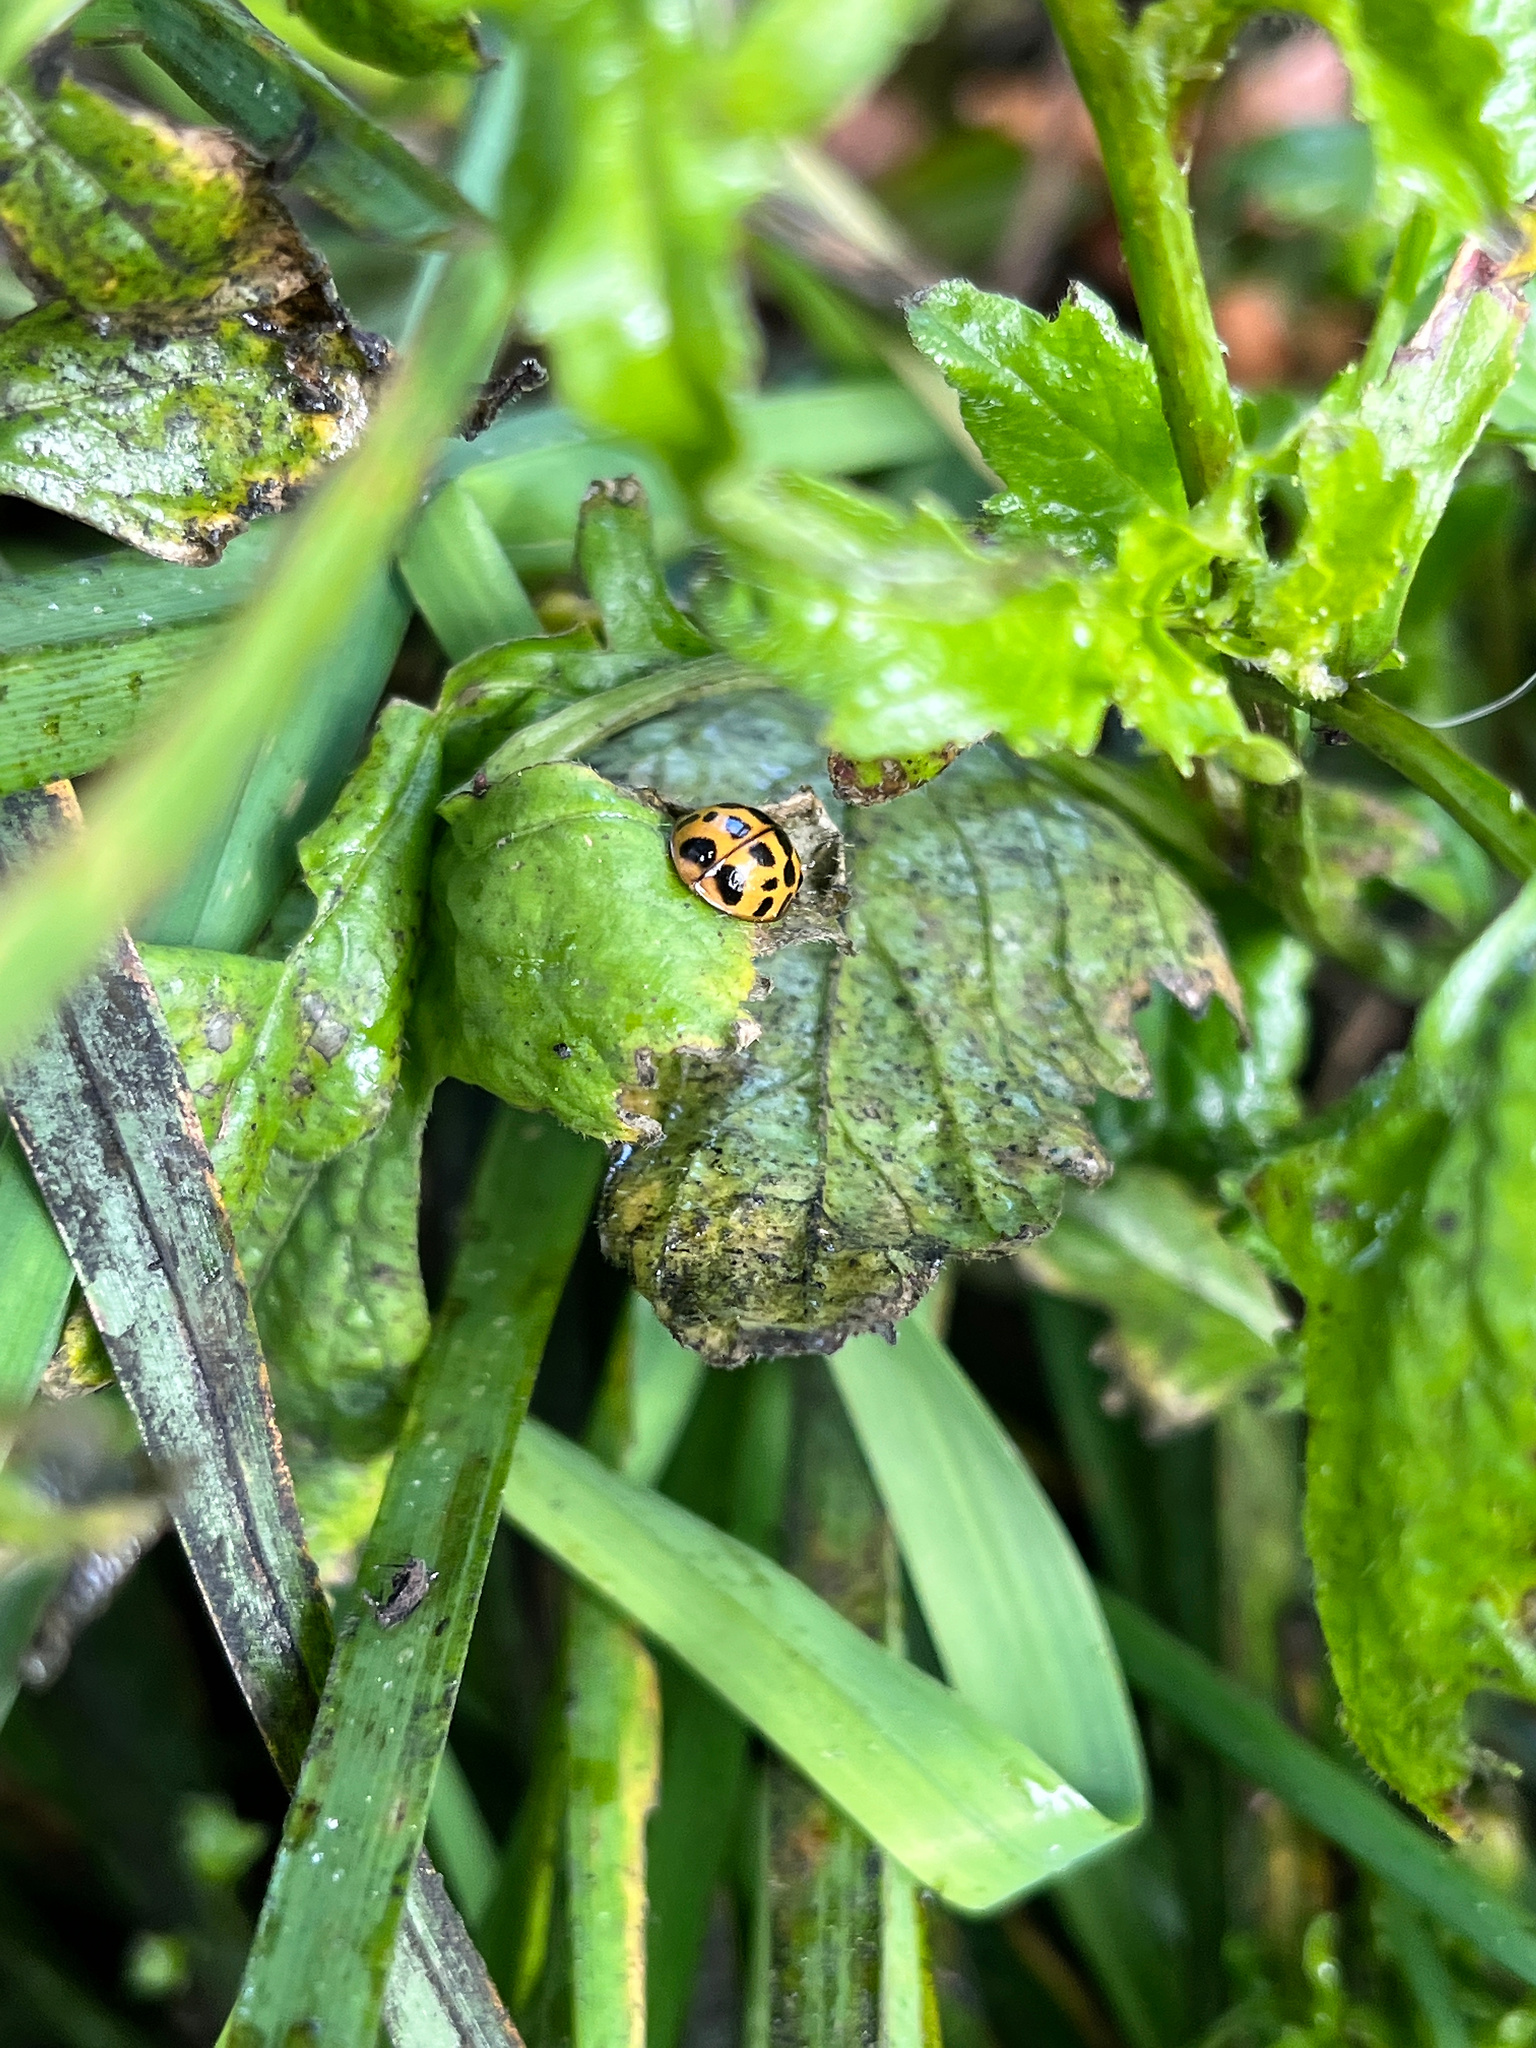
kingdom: Animalia
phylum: Arthropoda
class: Insecta
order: Coleoptera
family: Coccinellidae
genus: Harmonia
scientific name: Harmonia axyridis
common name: Harlequin ladybird
